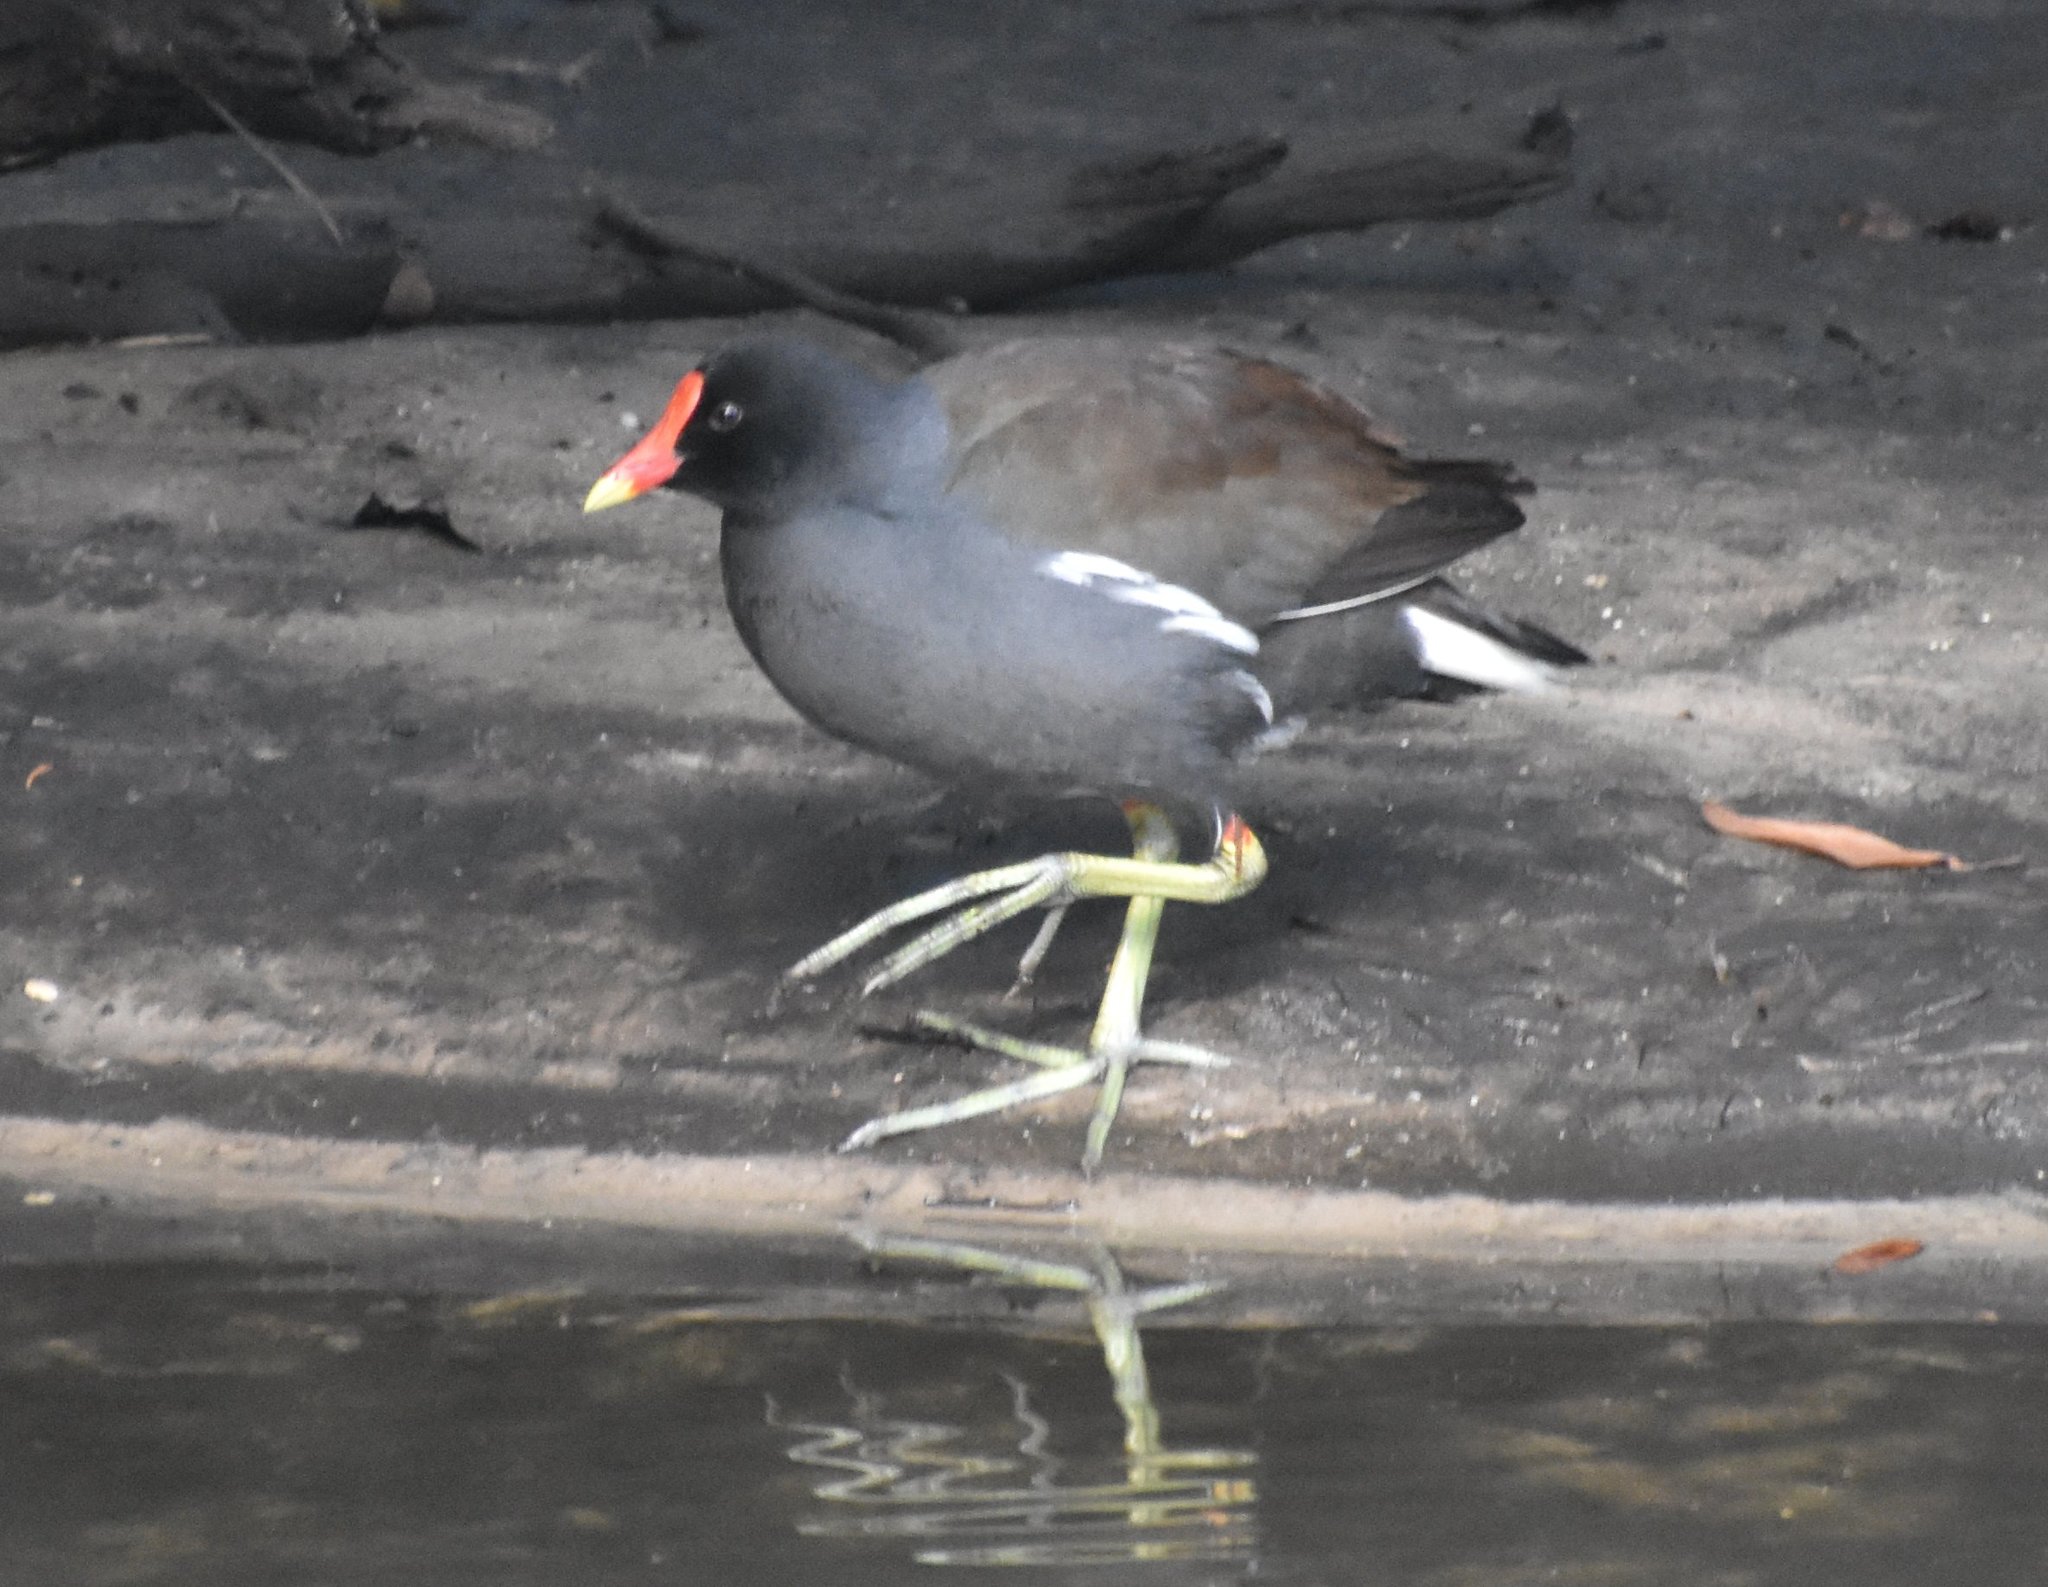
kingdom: Animalia
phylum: Chordata
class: Aves
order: Gruiformes
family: Rallidae
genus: Gallinula
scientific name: Gallinula chloropus
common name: Common moorhen
